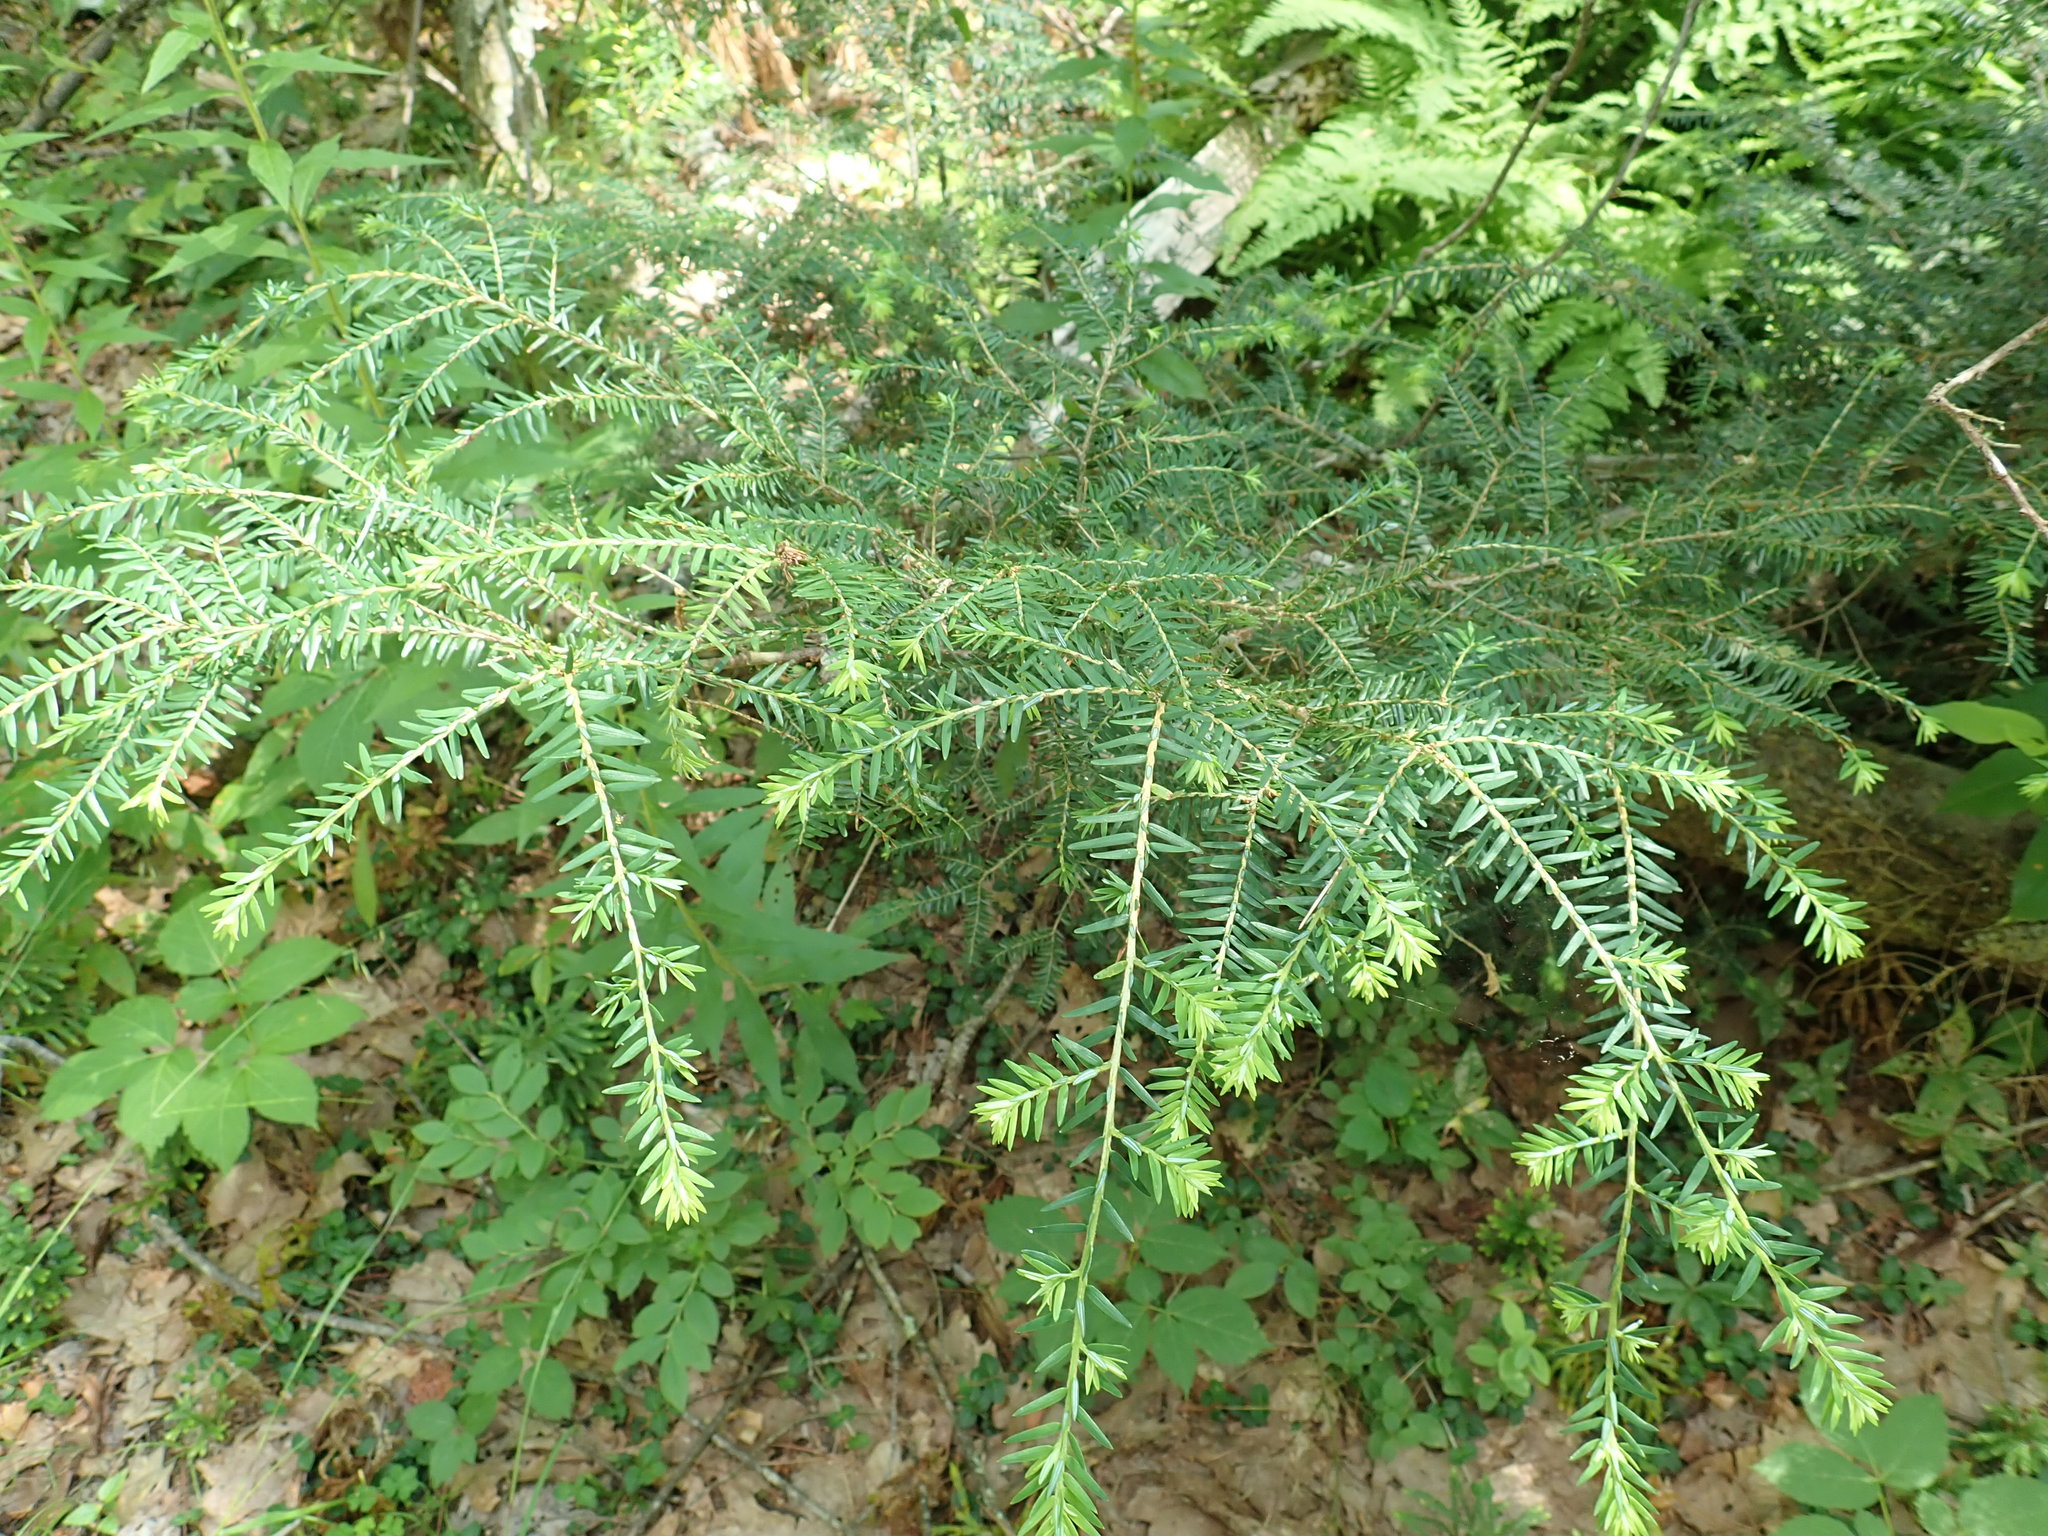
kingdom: Plantae
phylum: Tracheophyta
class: Pinopsida
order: Pinales
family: Pinaceae
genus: Tsuga
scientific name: Tsuga canadensis
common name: Eastern hemlock
